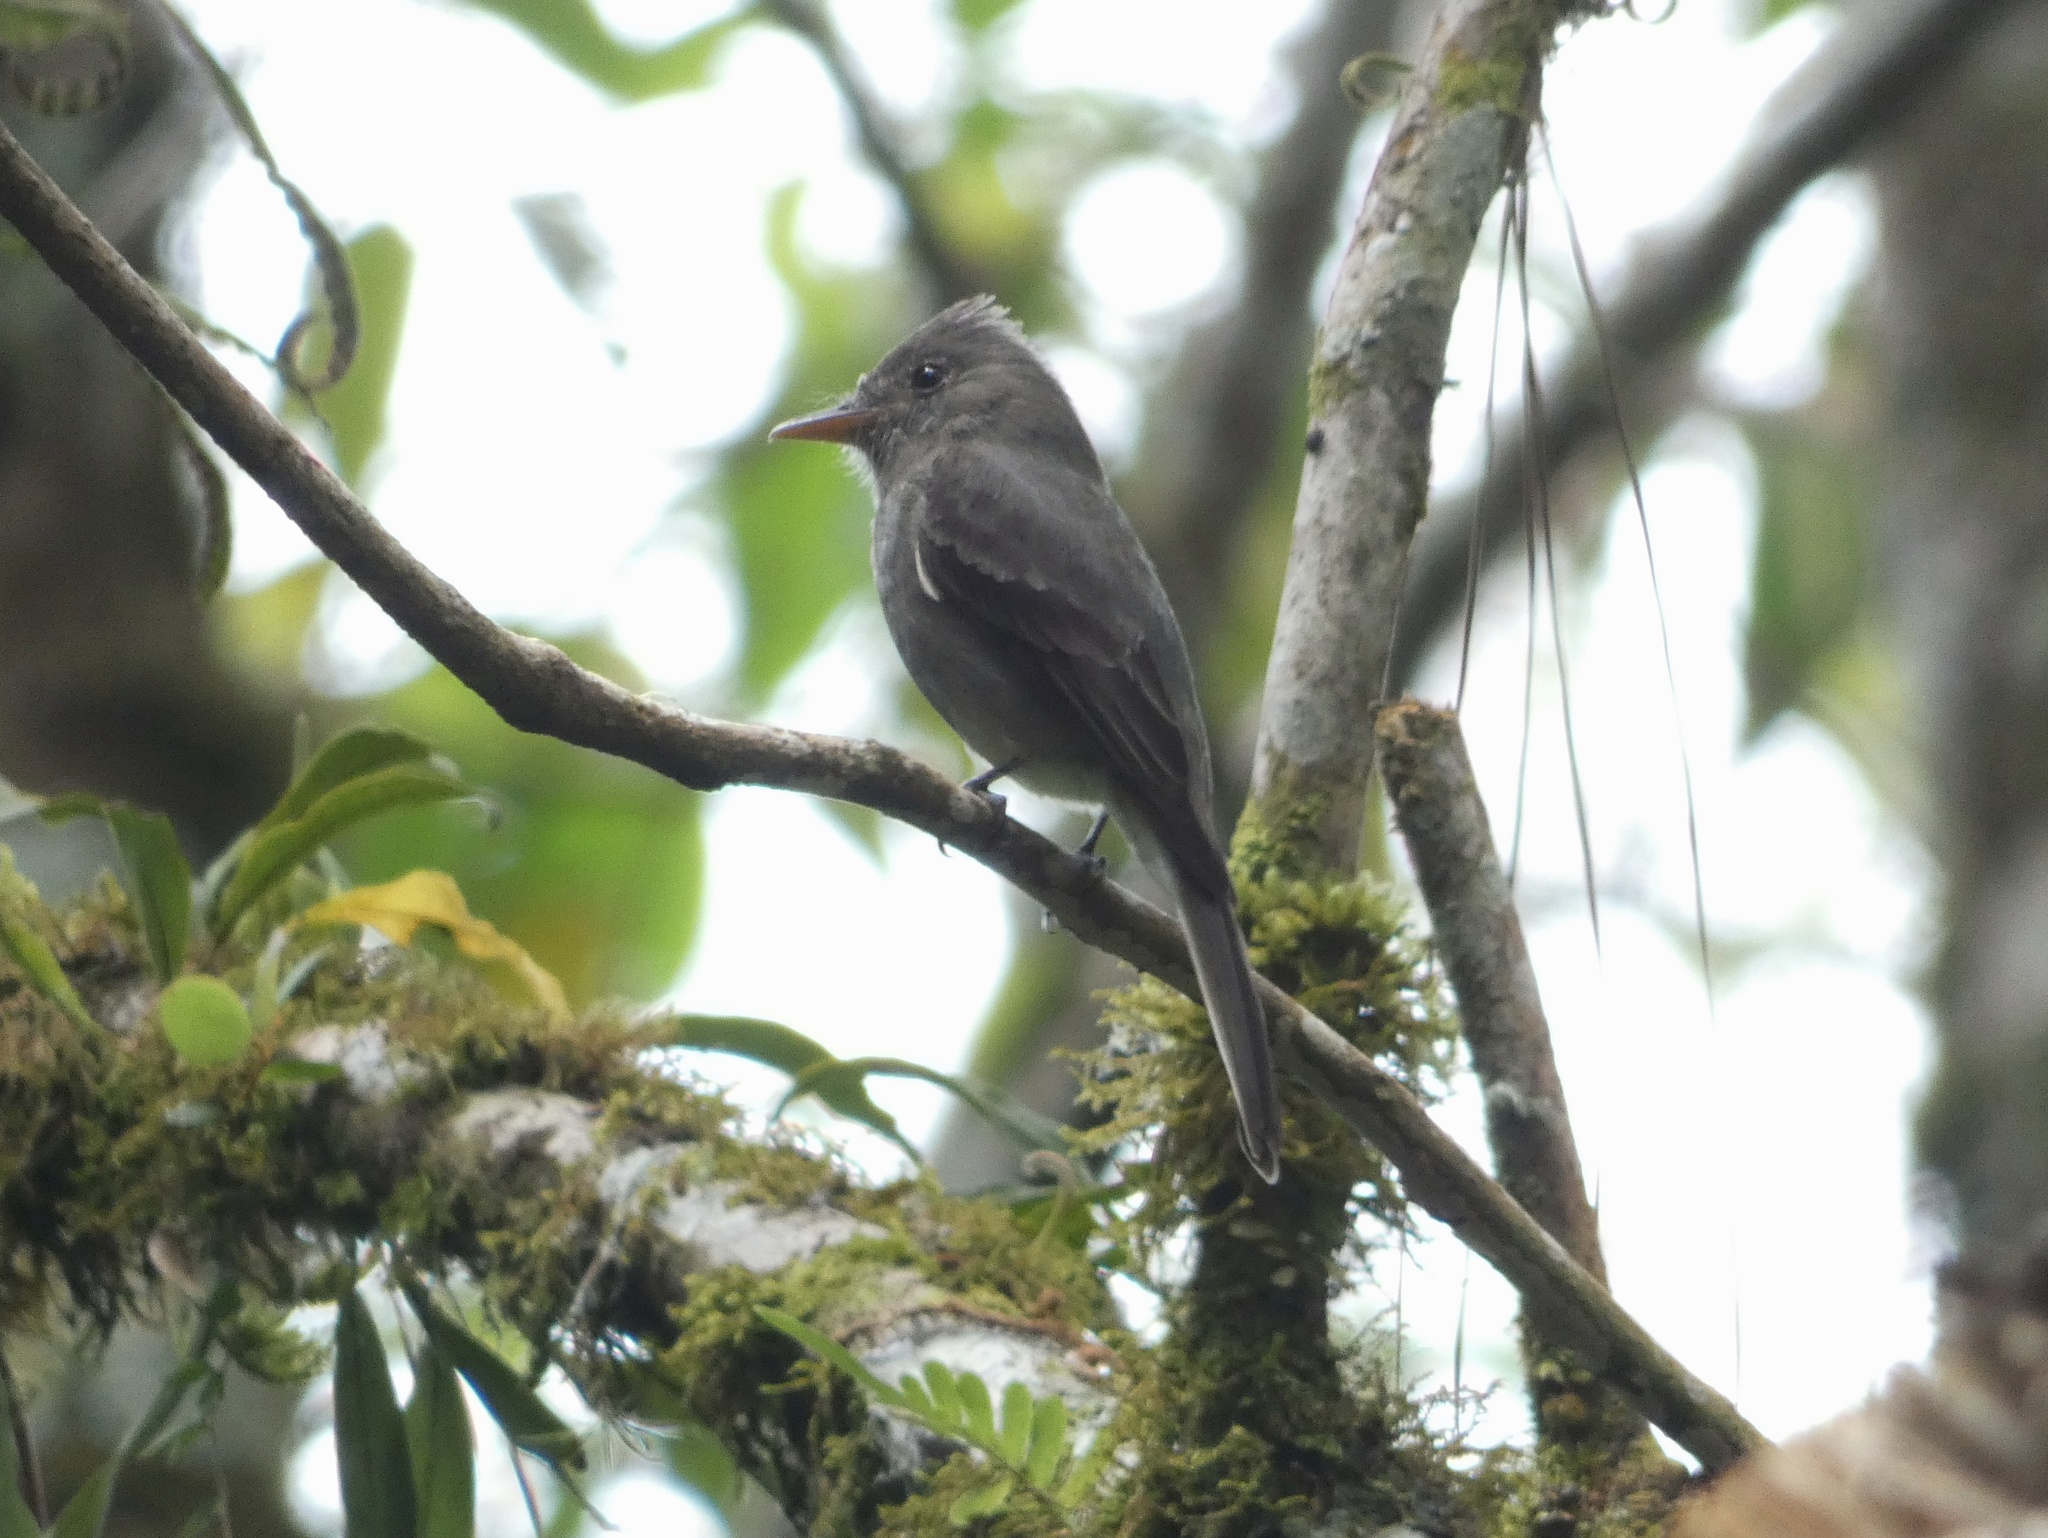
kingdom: Animalia
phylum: Chordata
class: Aves
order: Passeriformes
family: Tyrannidae
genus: Contopus
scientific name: Contopus lugubris
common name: Dark pewee
